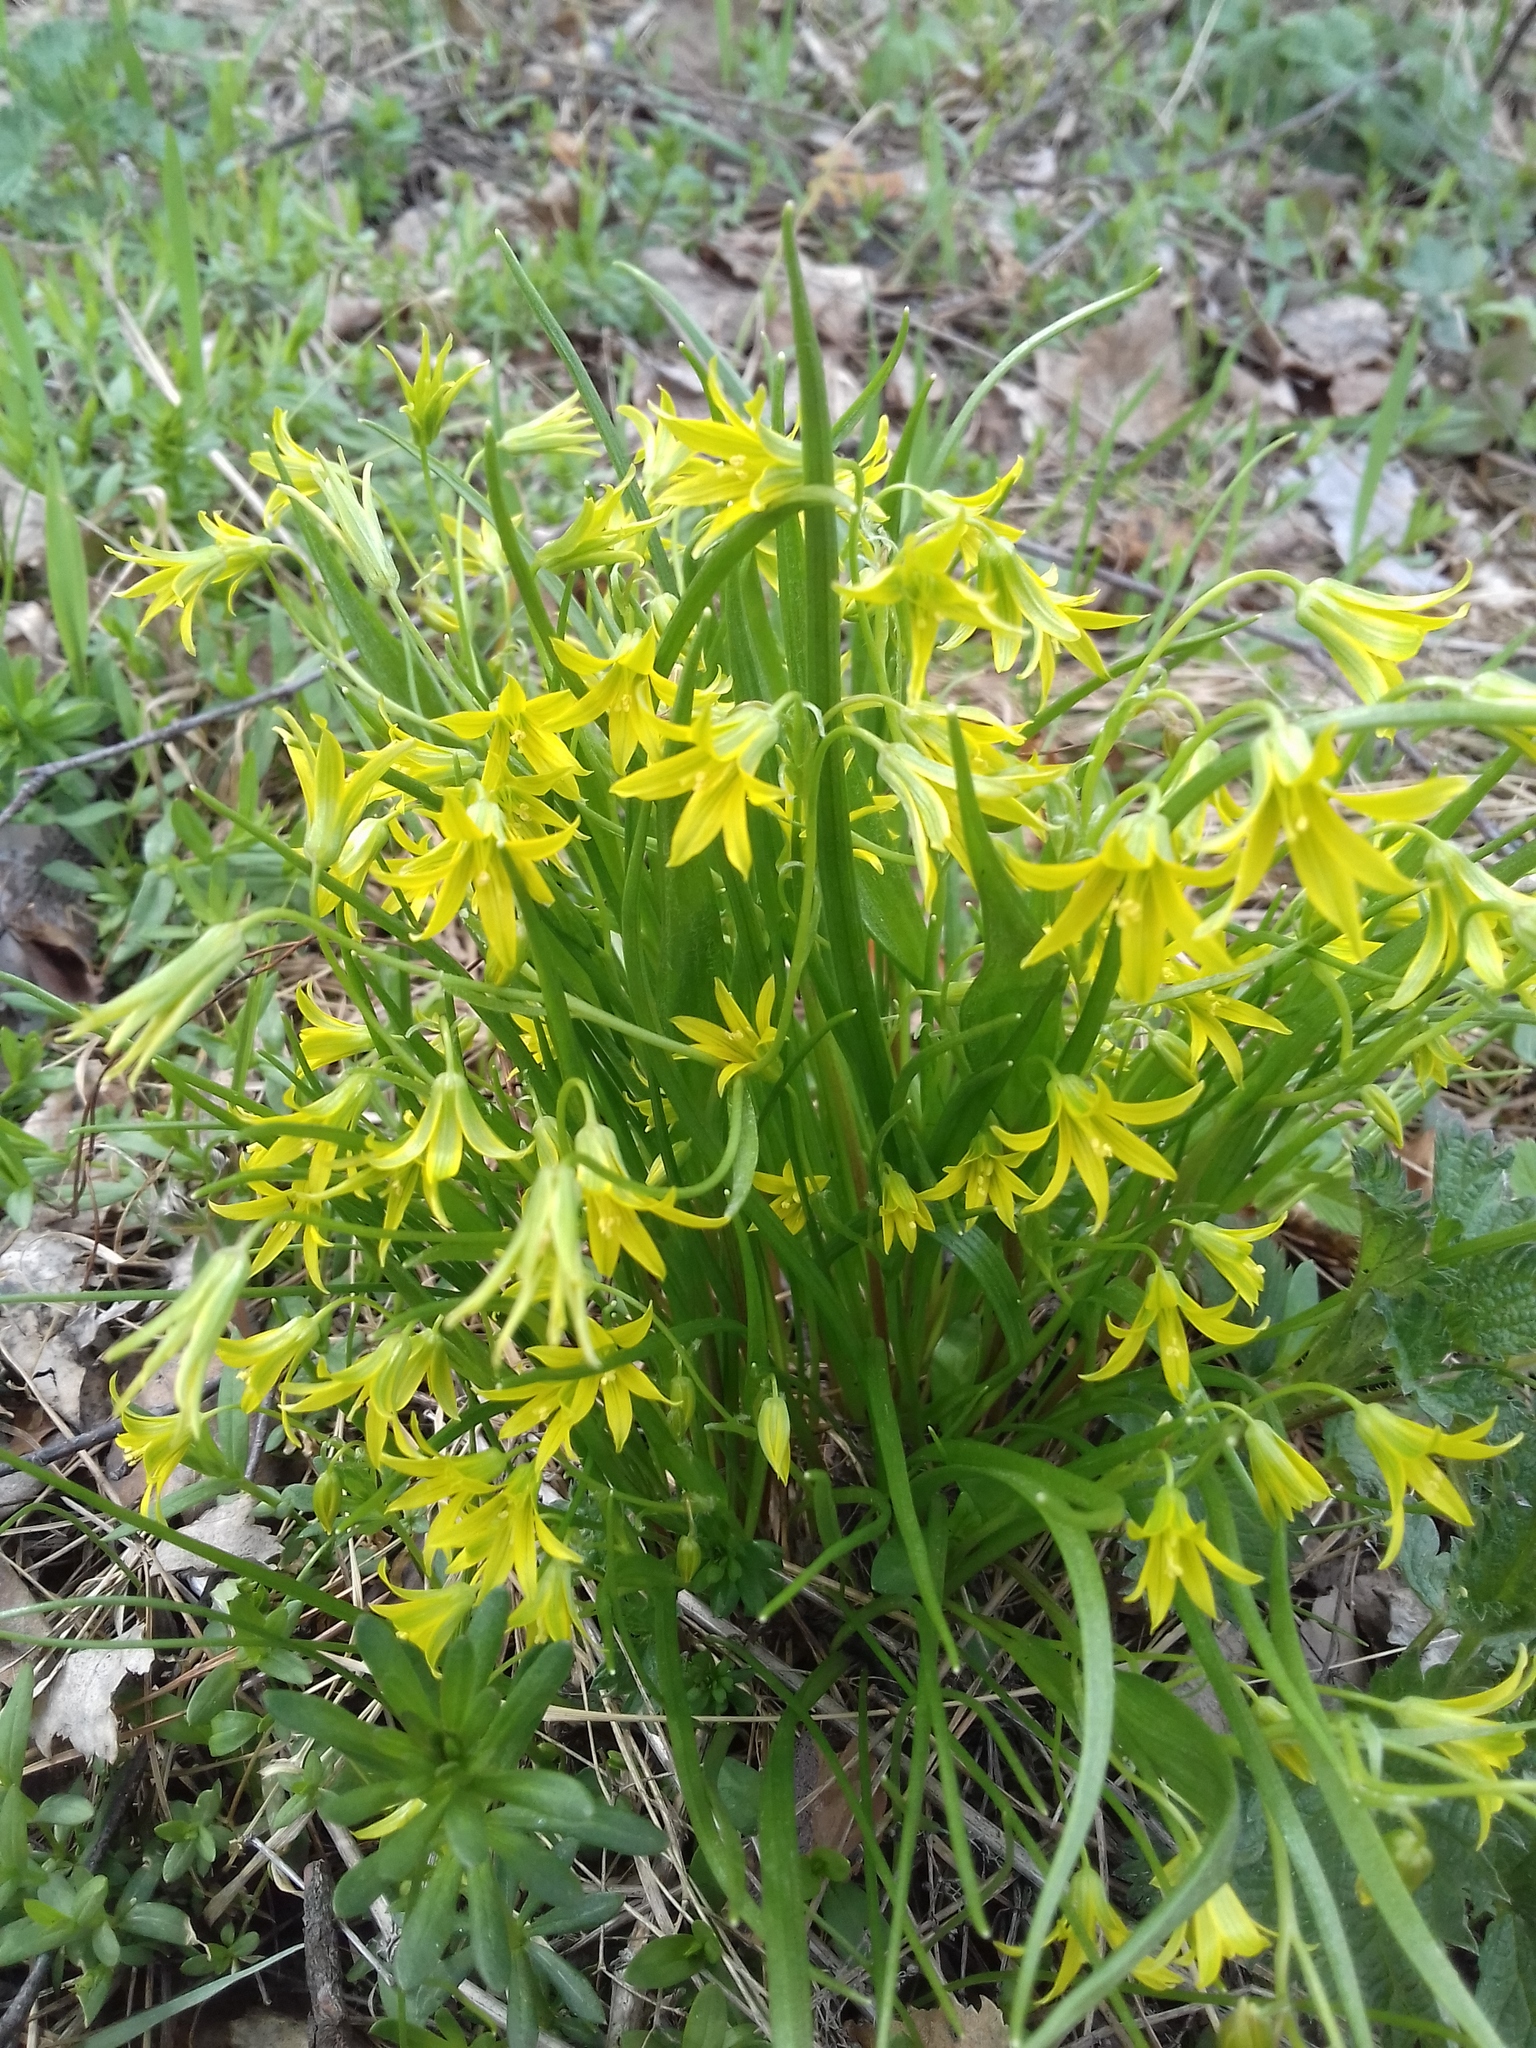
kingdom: Plantae
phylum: Tracheophyta
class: Liliopsida
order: Liliales
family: Liliaceae
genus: Gagea
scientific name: Gagea minima
